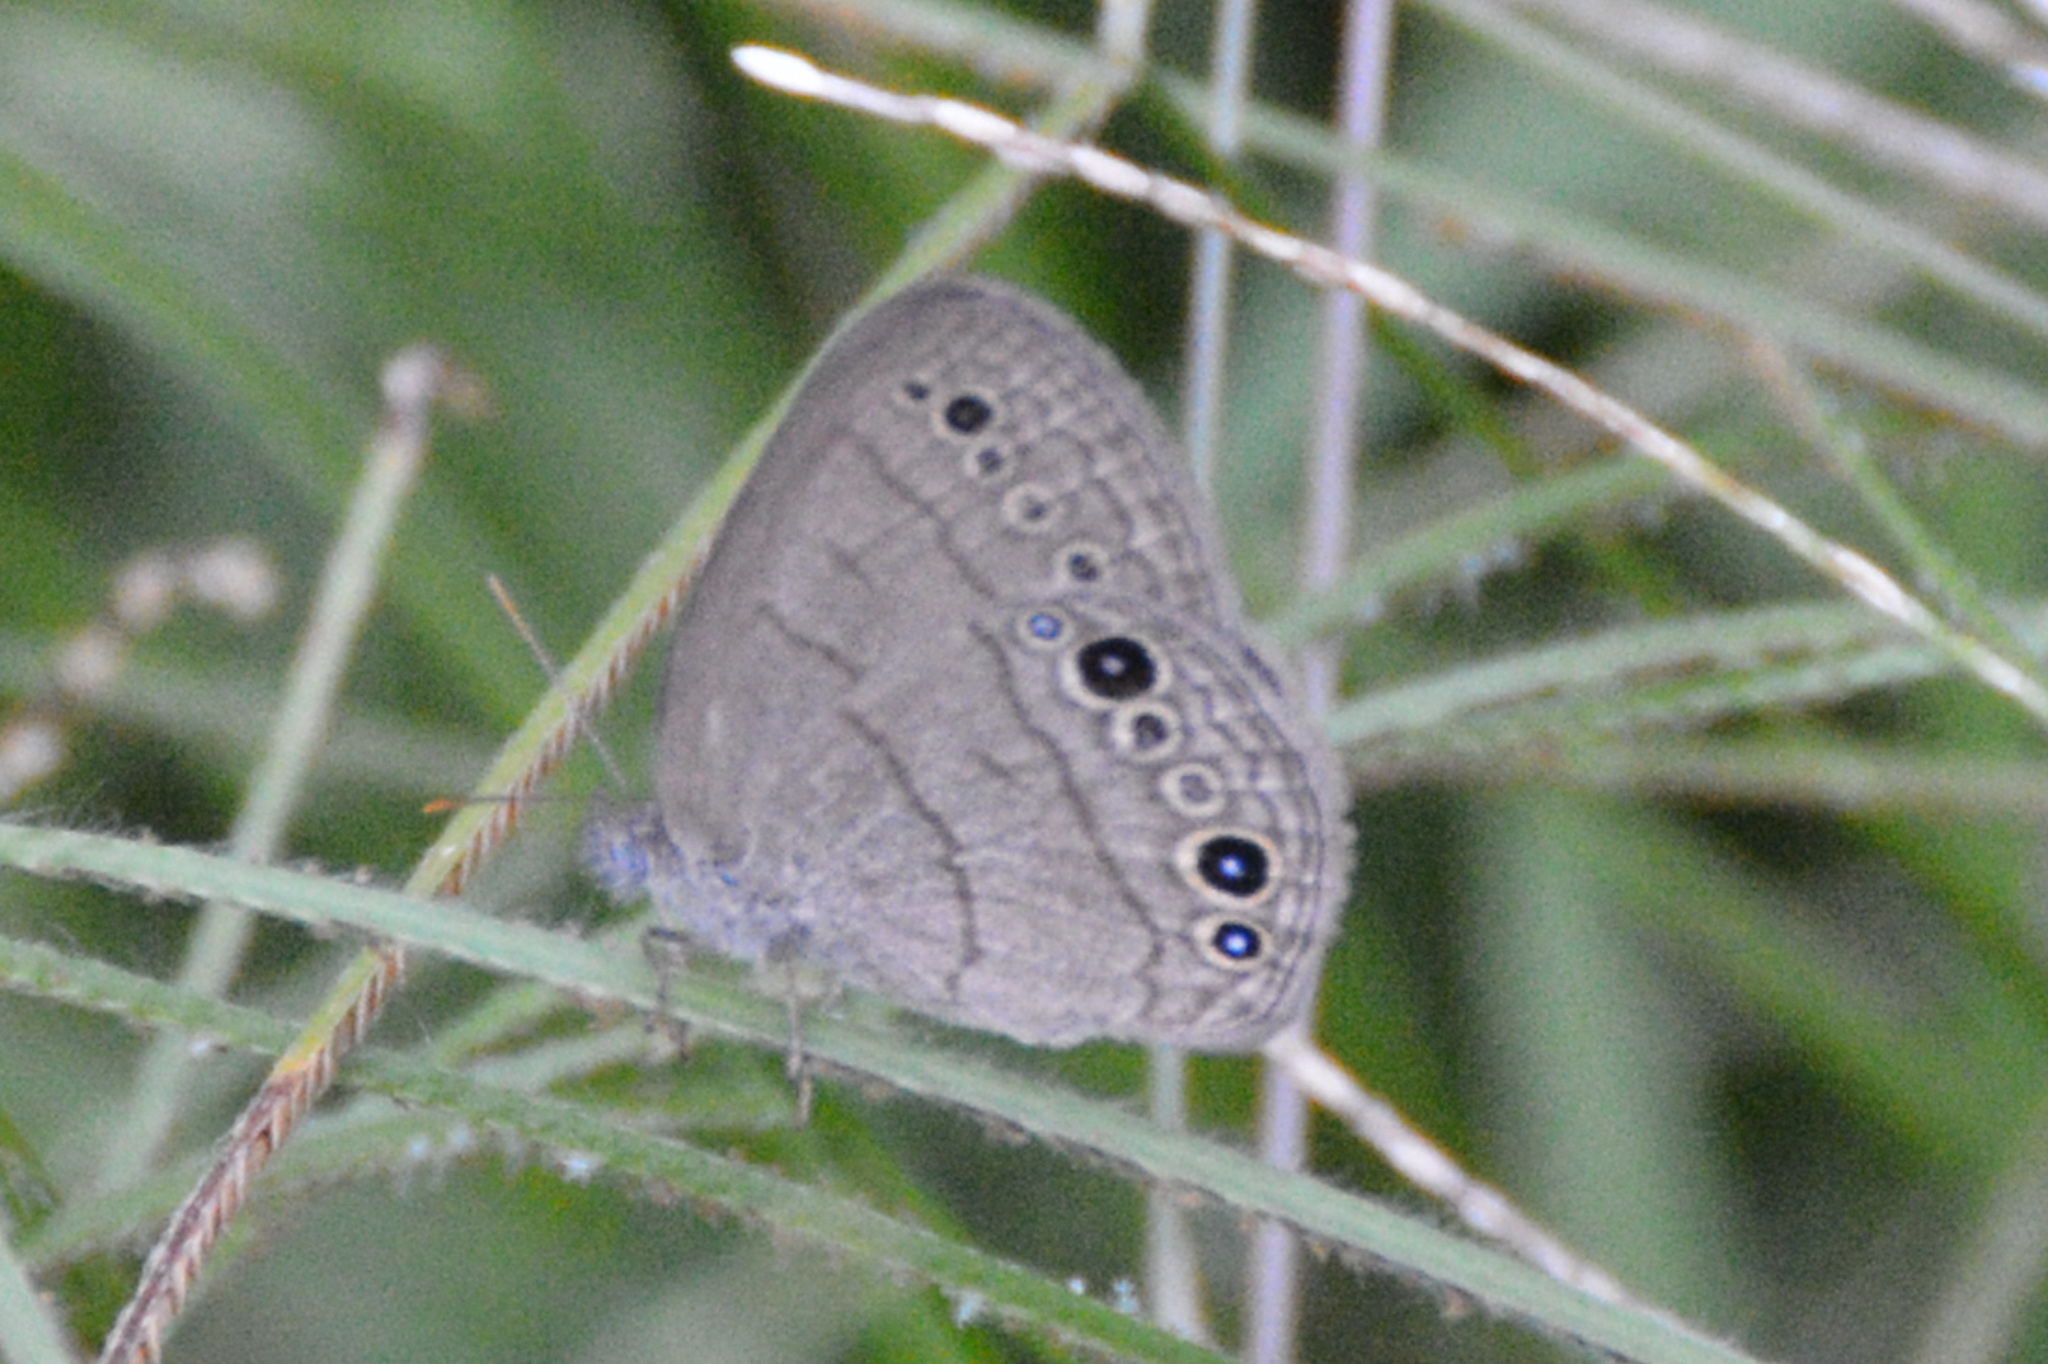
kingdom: Animalia
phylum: Arthropoda
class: Insecta
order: Lepidoptera
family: Nymphalidae
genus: Hermeuptychia
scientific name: Hermeuptychia hermes
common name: Hermes satyr
